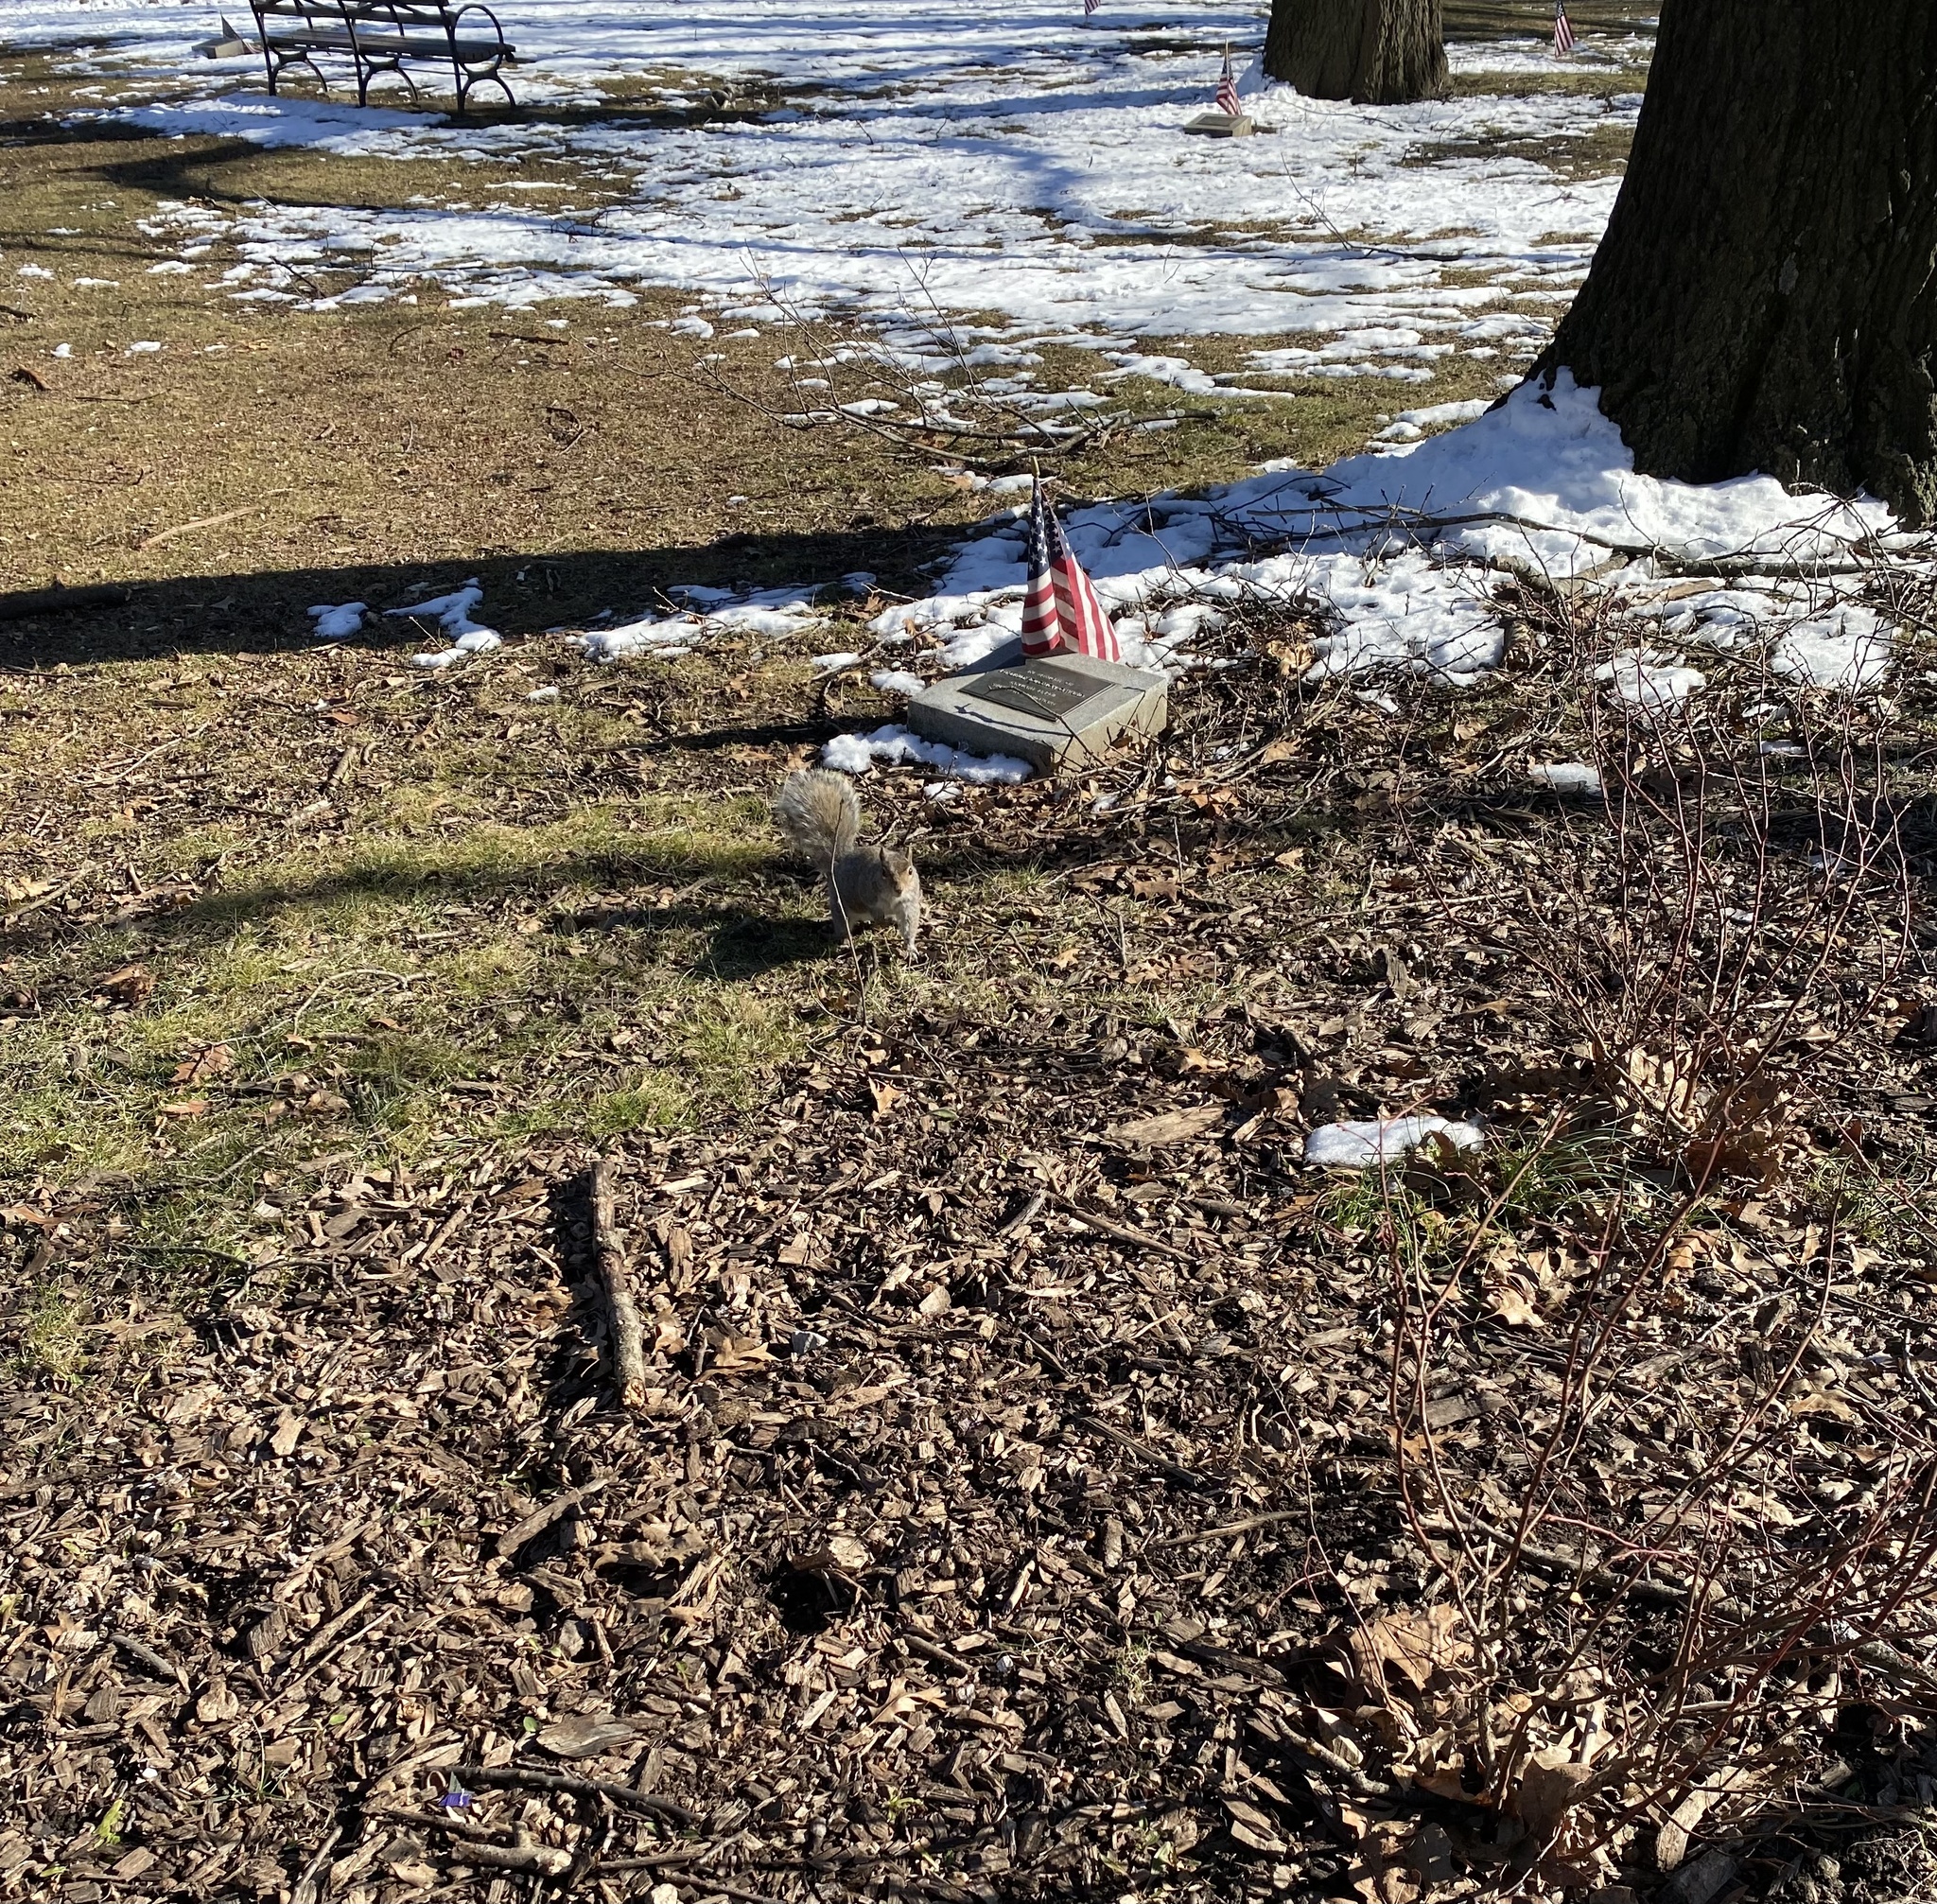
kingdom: Animalia
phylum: Chordata
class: Mammalia
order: Rodentia
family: Sciuridae
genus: Sciurus
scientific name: Sciurus carolinensis
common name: Eastern gray squirrel
